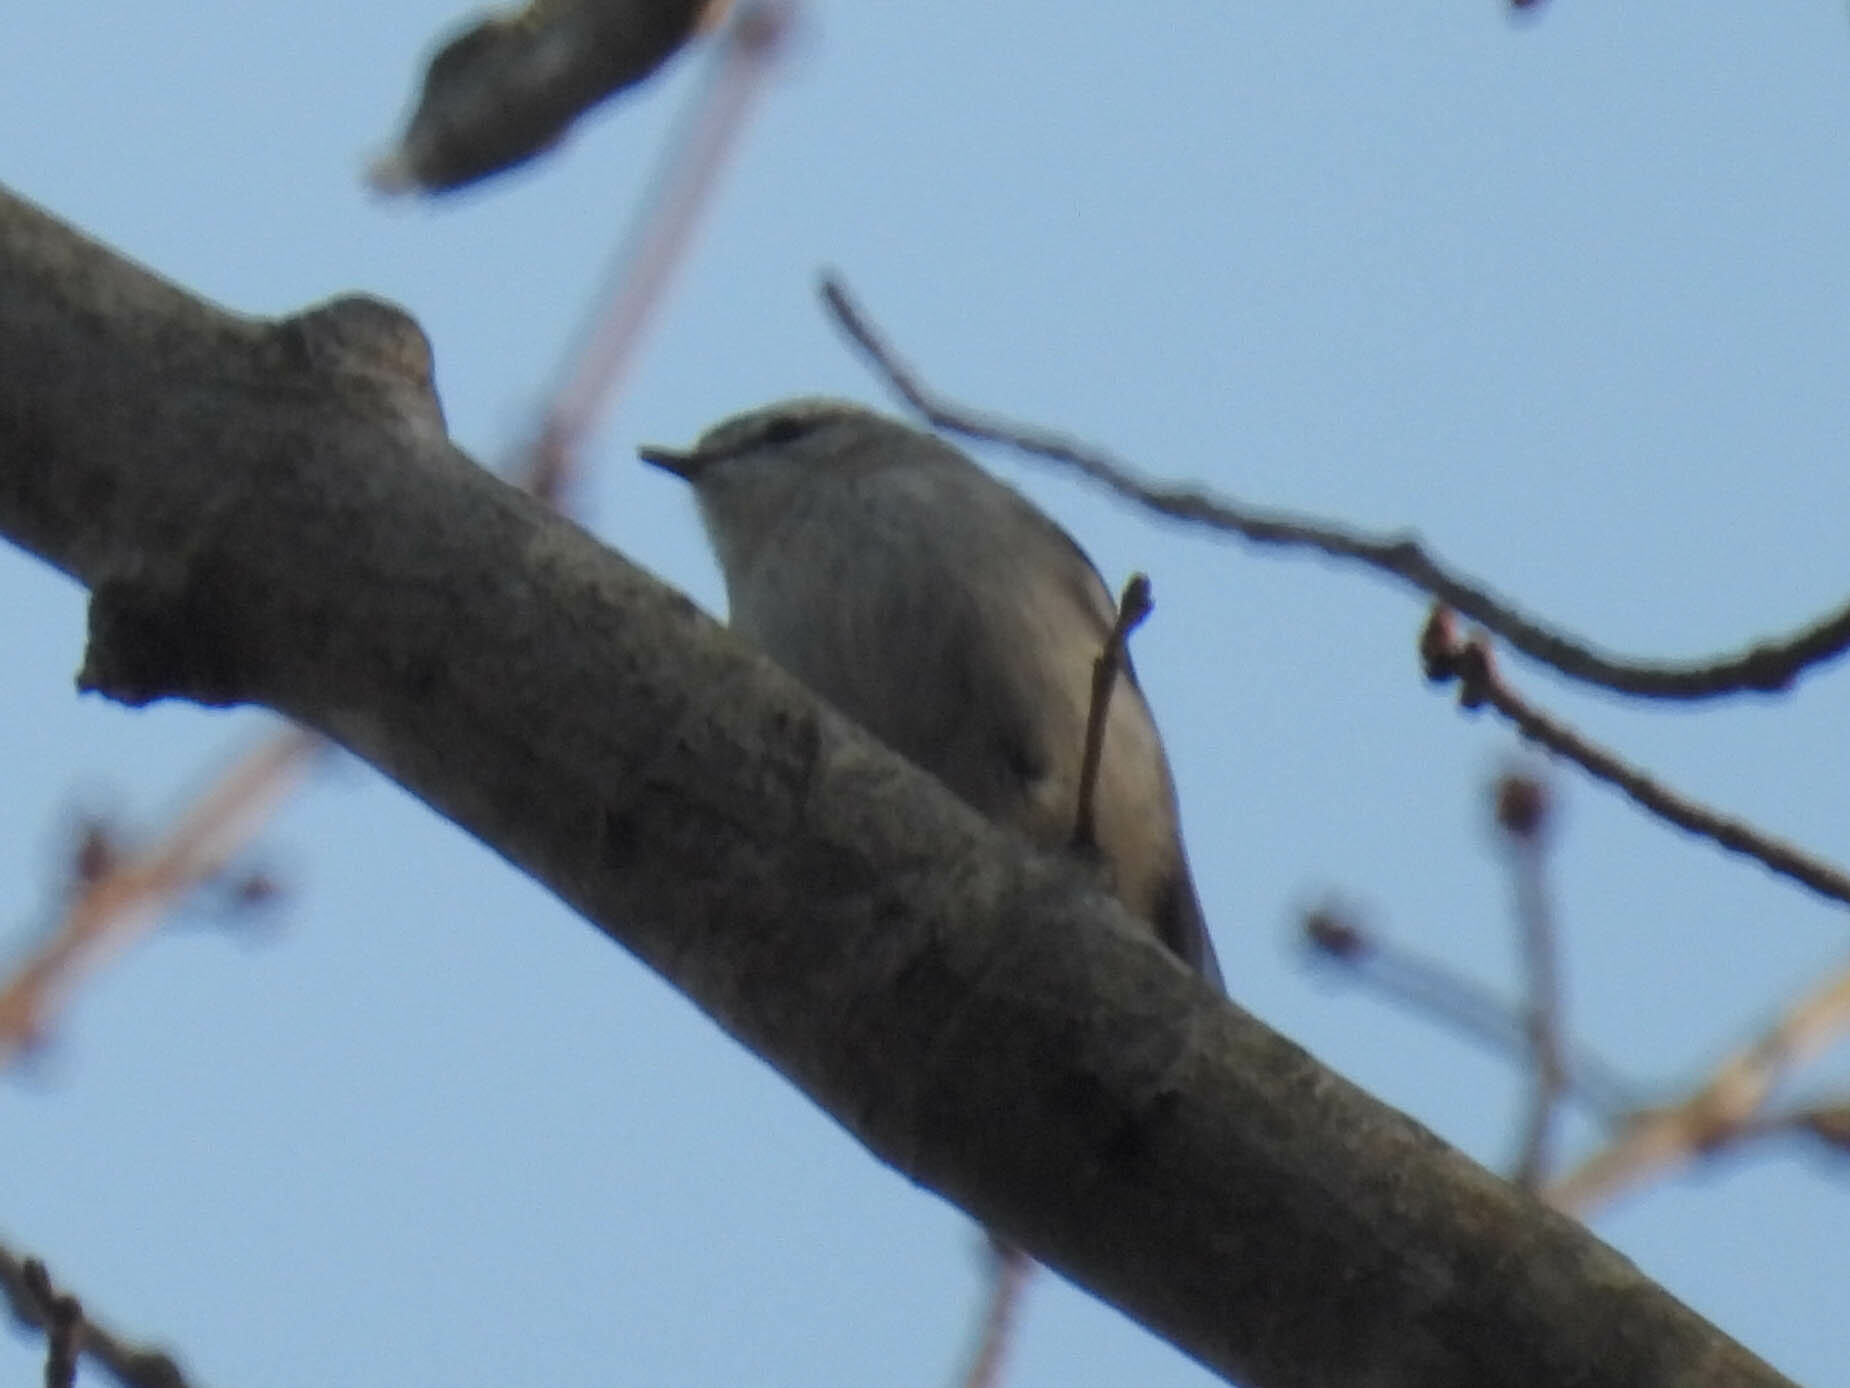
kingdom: Animalia
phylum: Chordata
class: Aves
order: Passeriformes
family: Regulidae
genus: Regulus
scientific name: Regulus satrapa
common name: Golden-crowned kinglet
